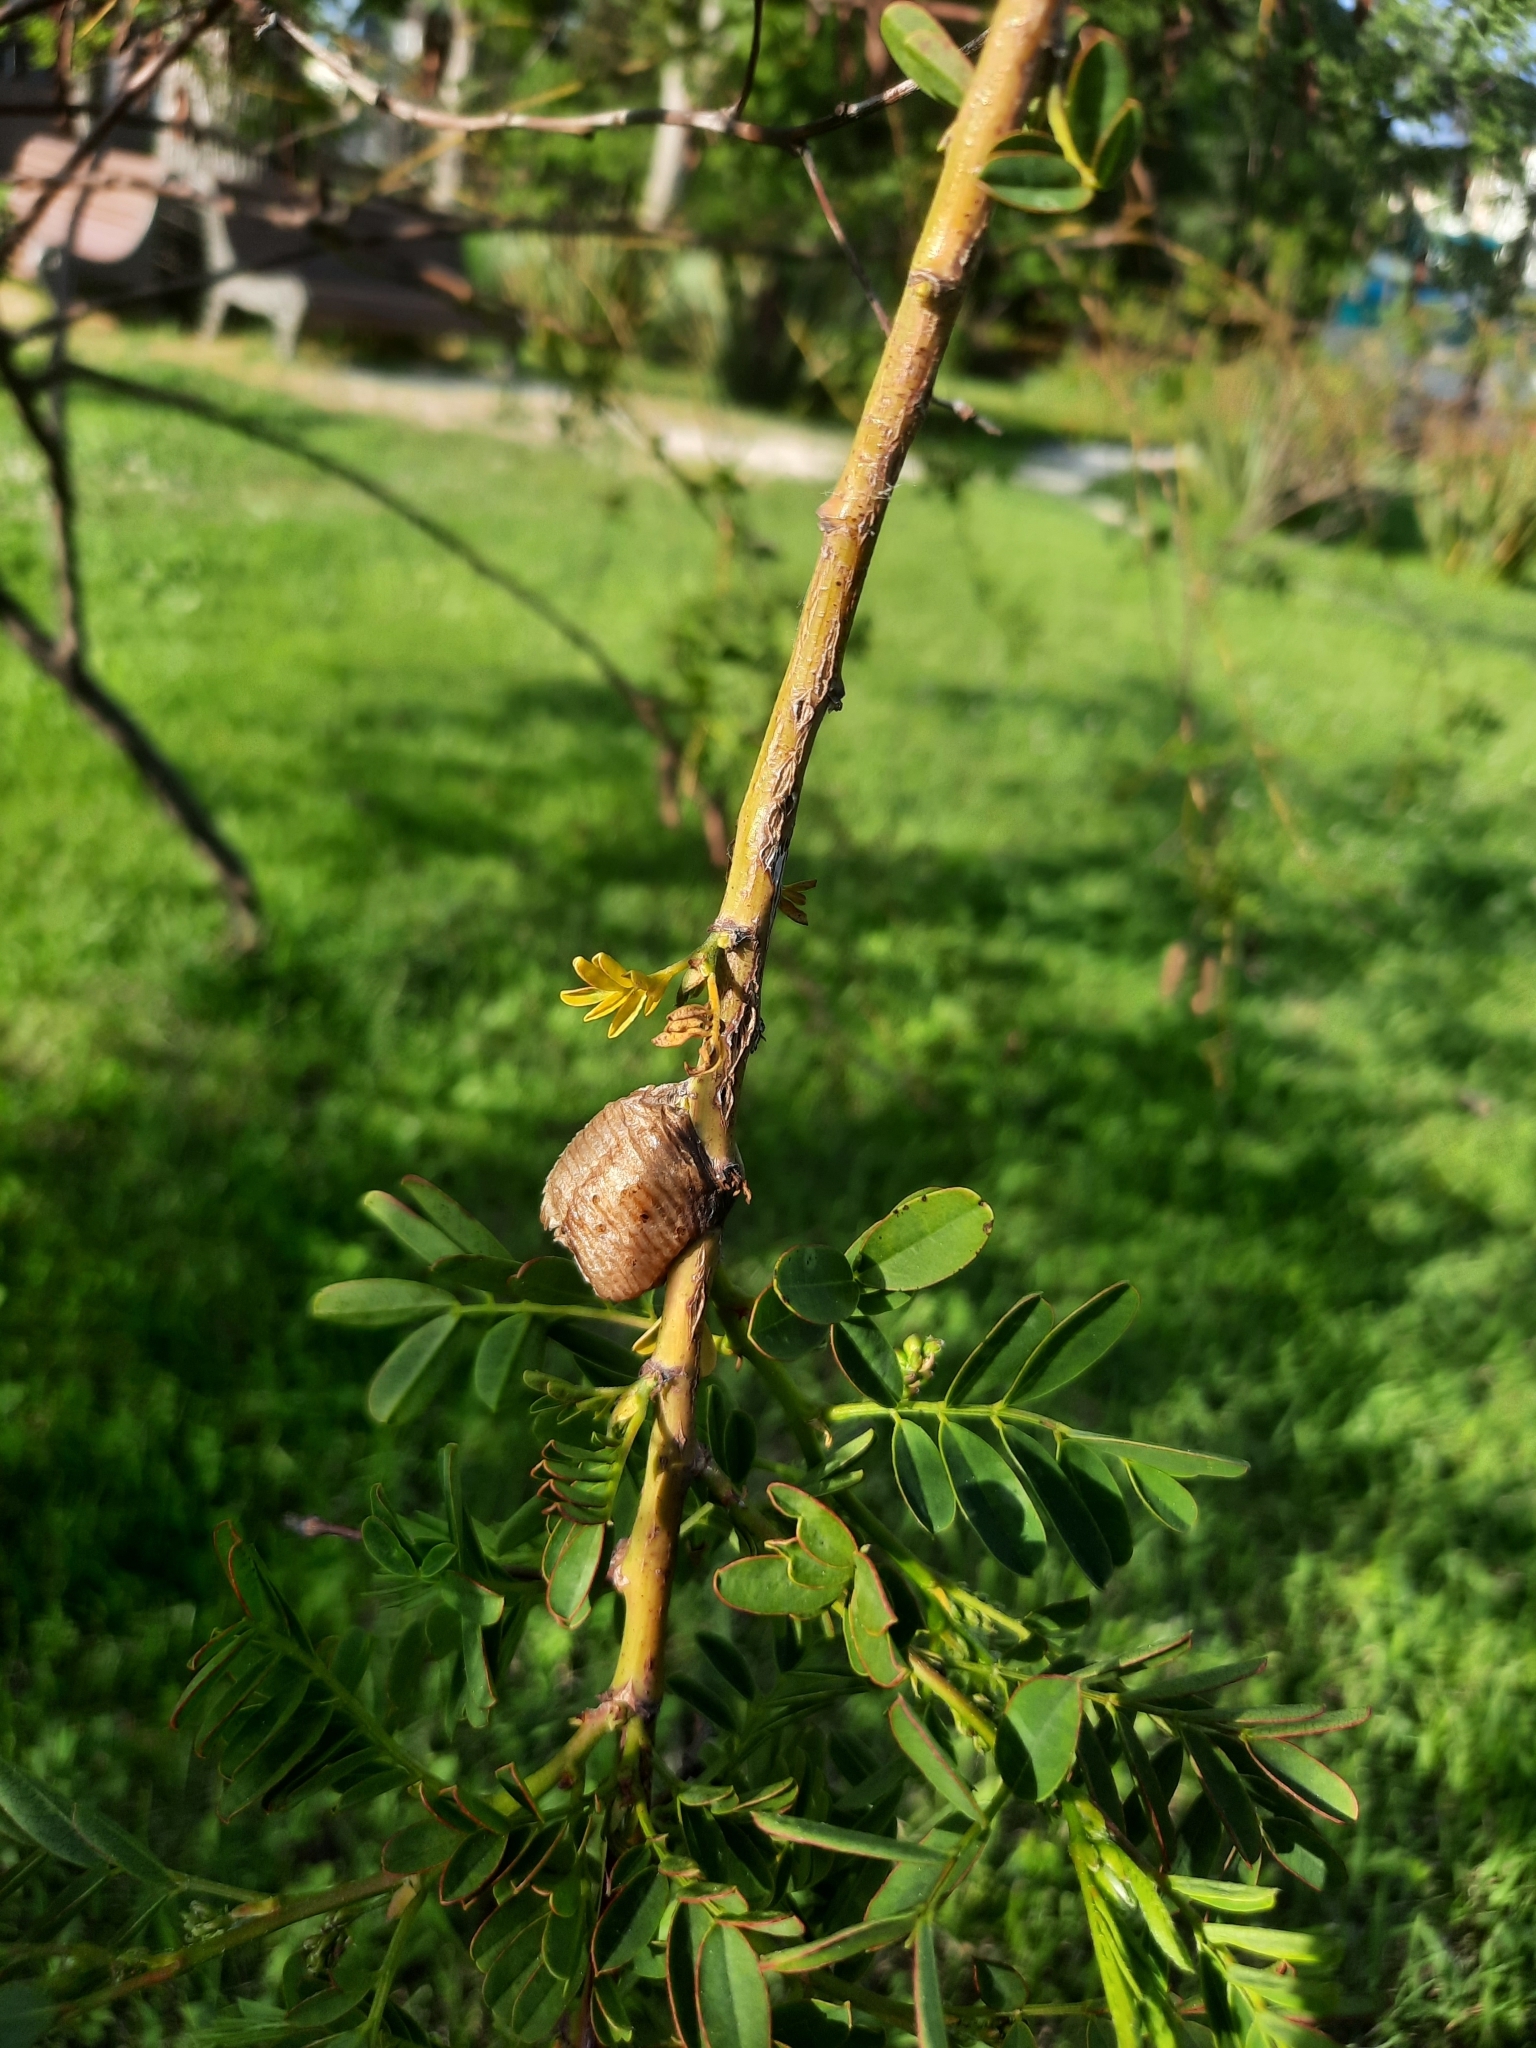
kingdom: Animalia
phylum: Arthropoda
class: Insecta
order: Mantodea
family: Mantidae
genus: Hierodula
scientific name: Hierodula transcaucasica
